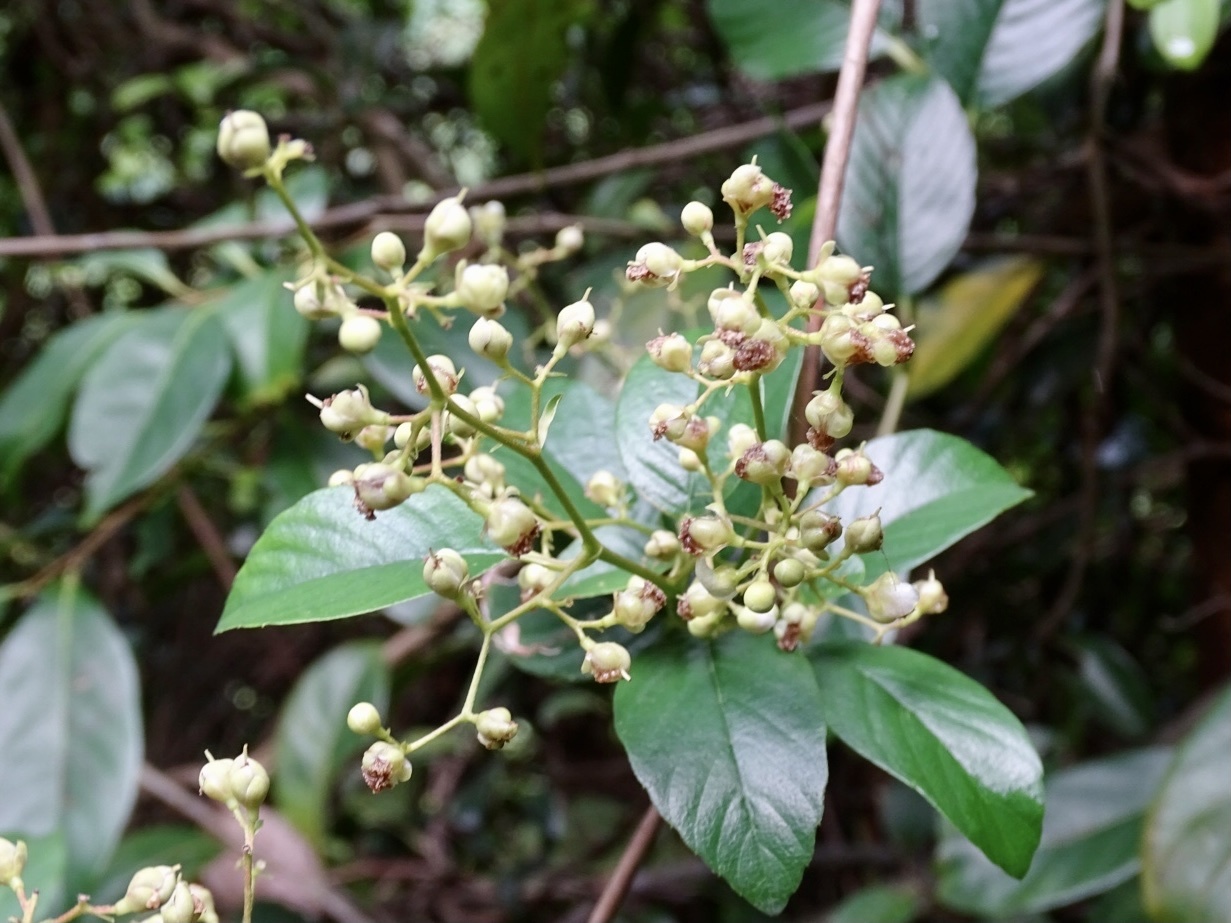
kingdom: Plantae
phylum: Tracheophyta
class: Magnoliopsida
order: Dilleniales
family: Dilleniaceae
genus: Tetracera
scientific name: Tetracera sarmentosa
